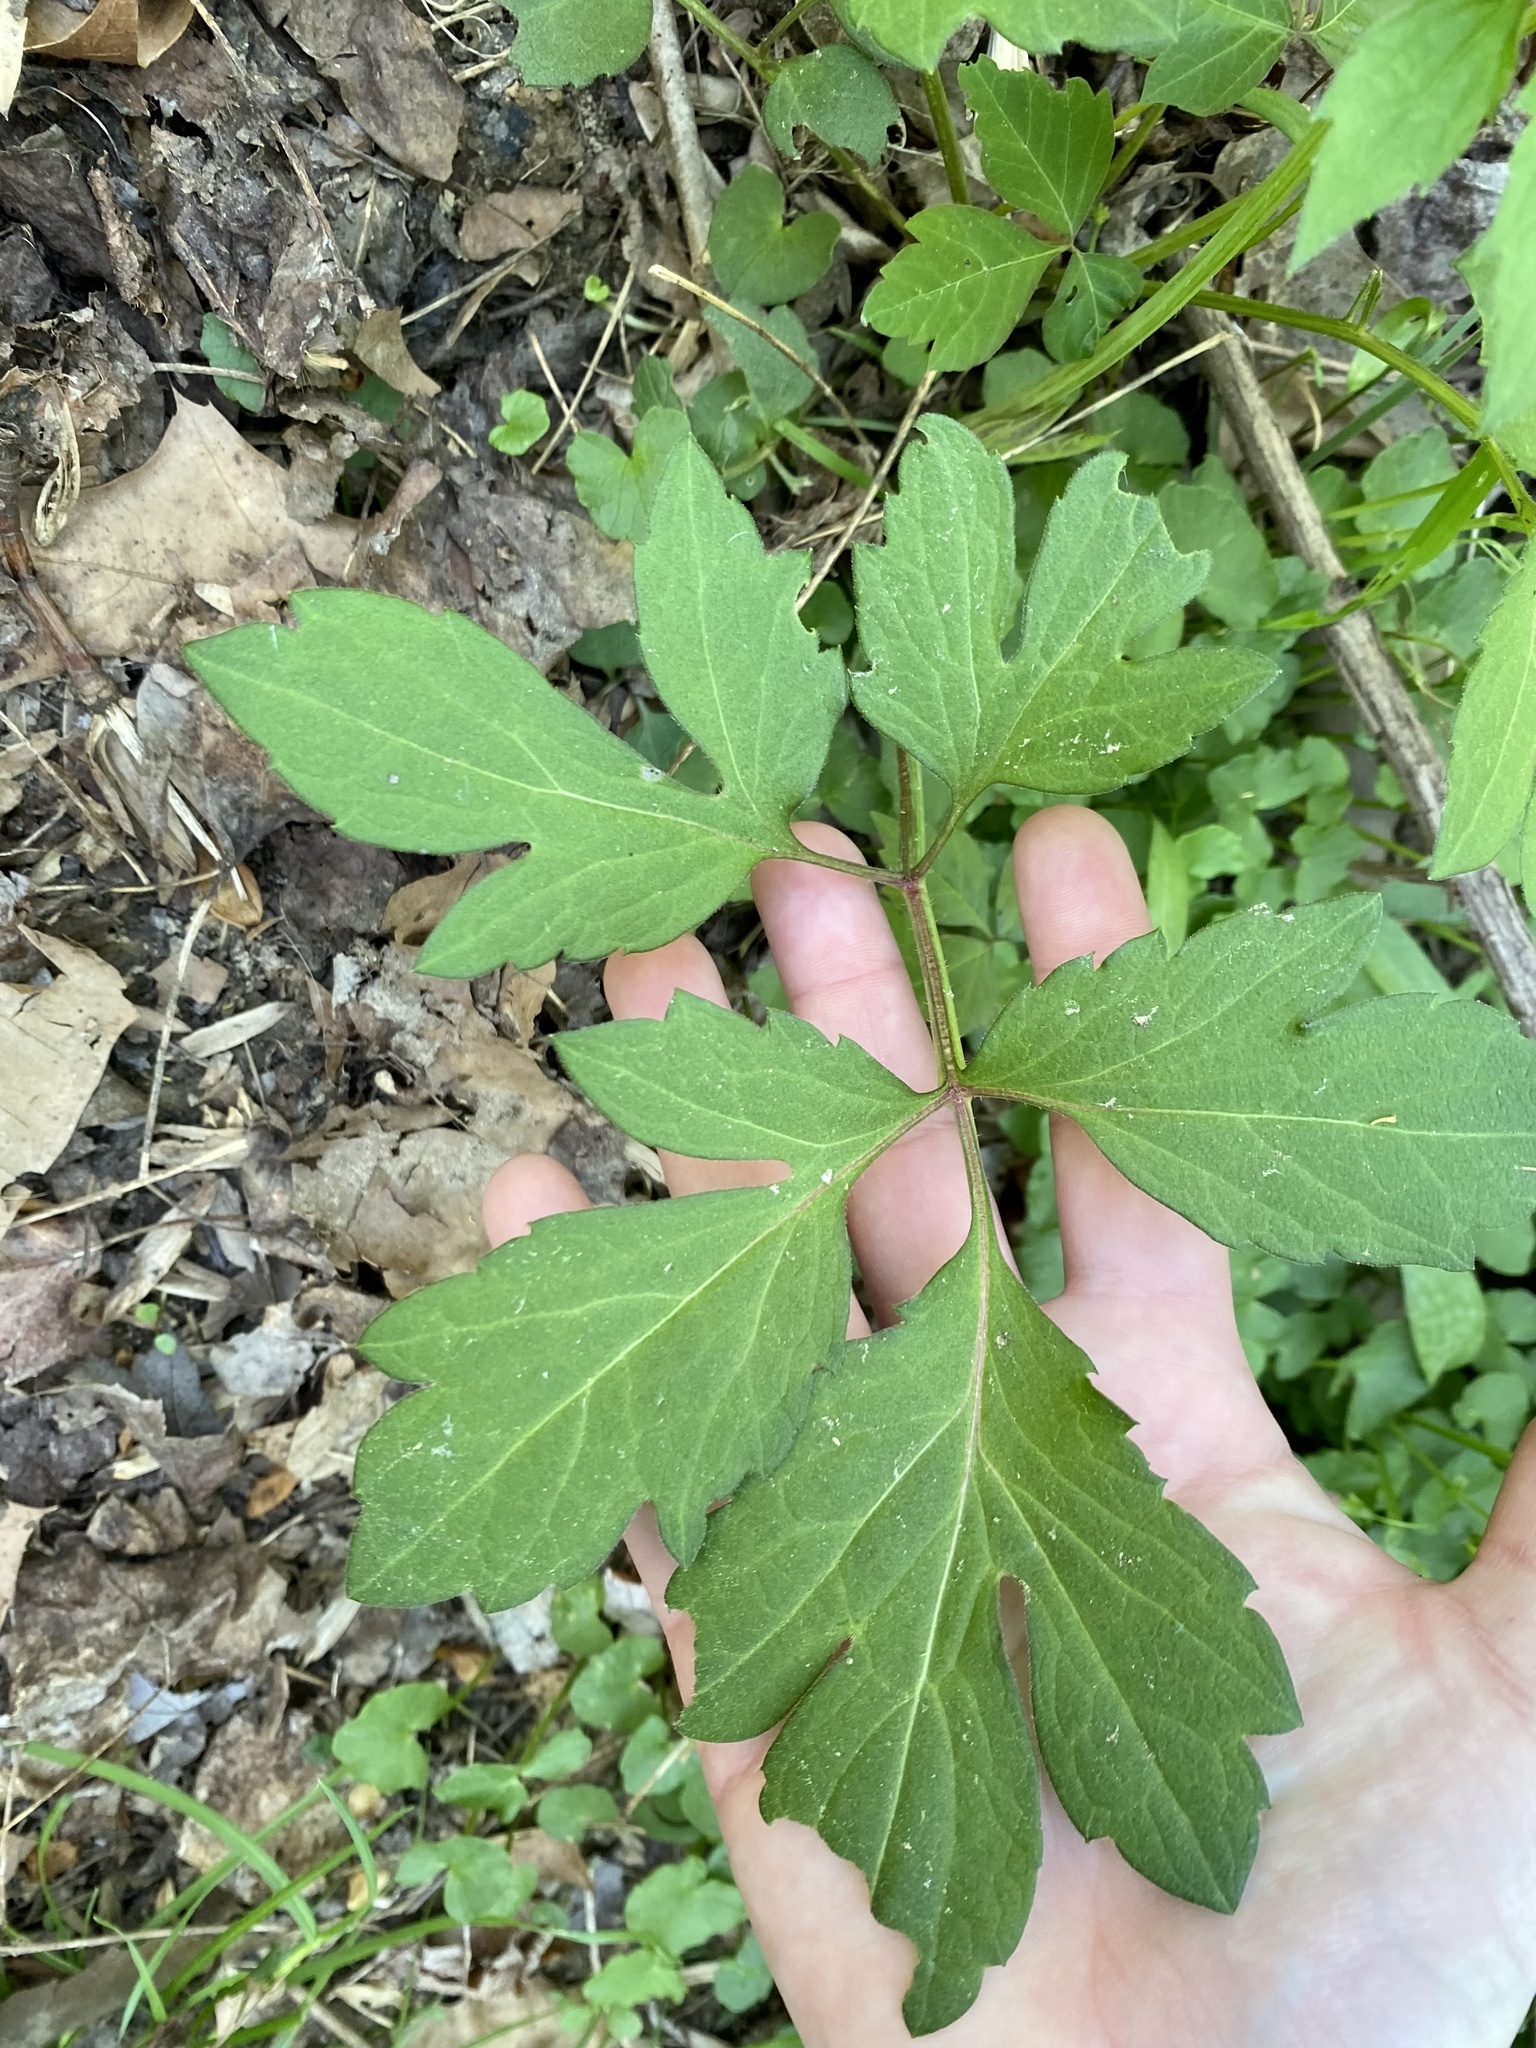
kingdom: Plantae
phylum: Tracheophyta
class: Magnoliopsida
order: Asterales
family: Asteraceae
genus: Rudbeckia
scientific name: Rudbeckia laciniata
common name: Coneflower
